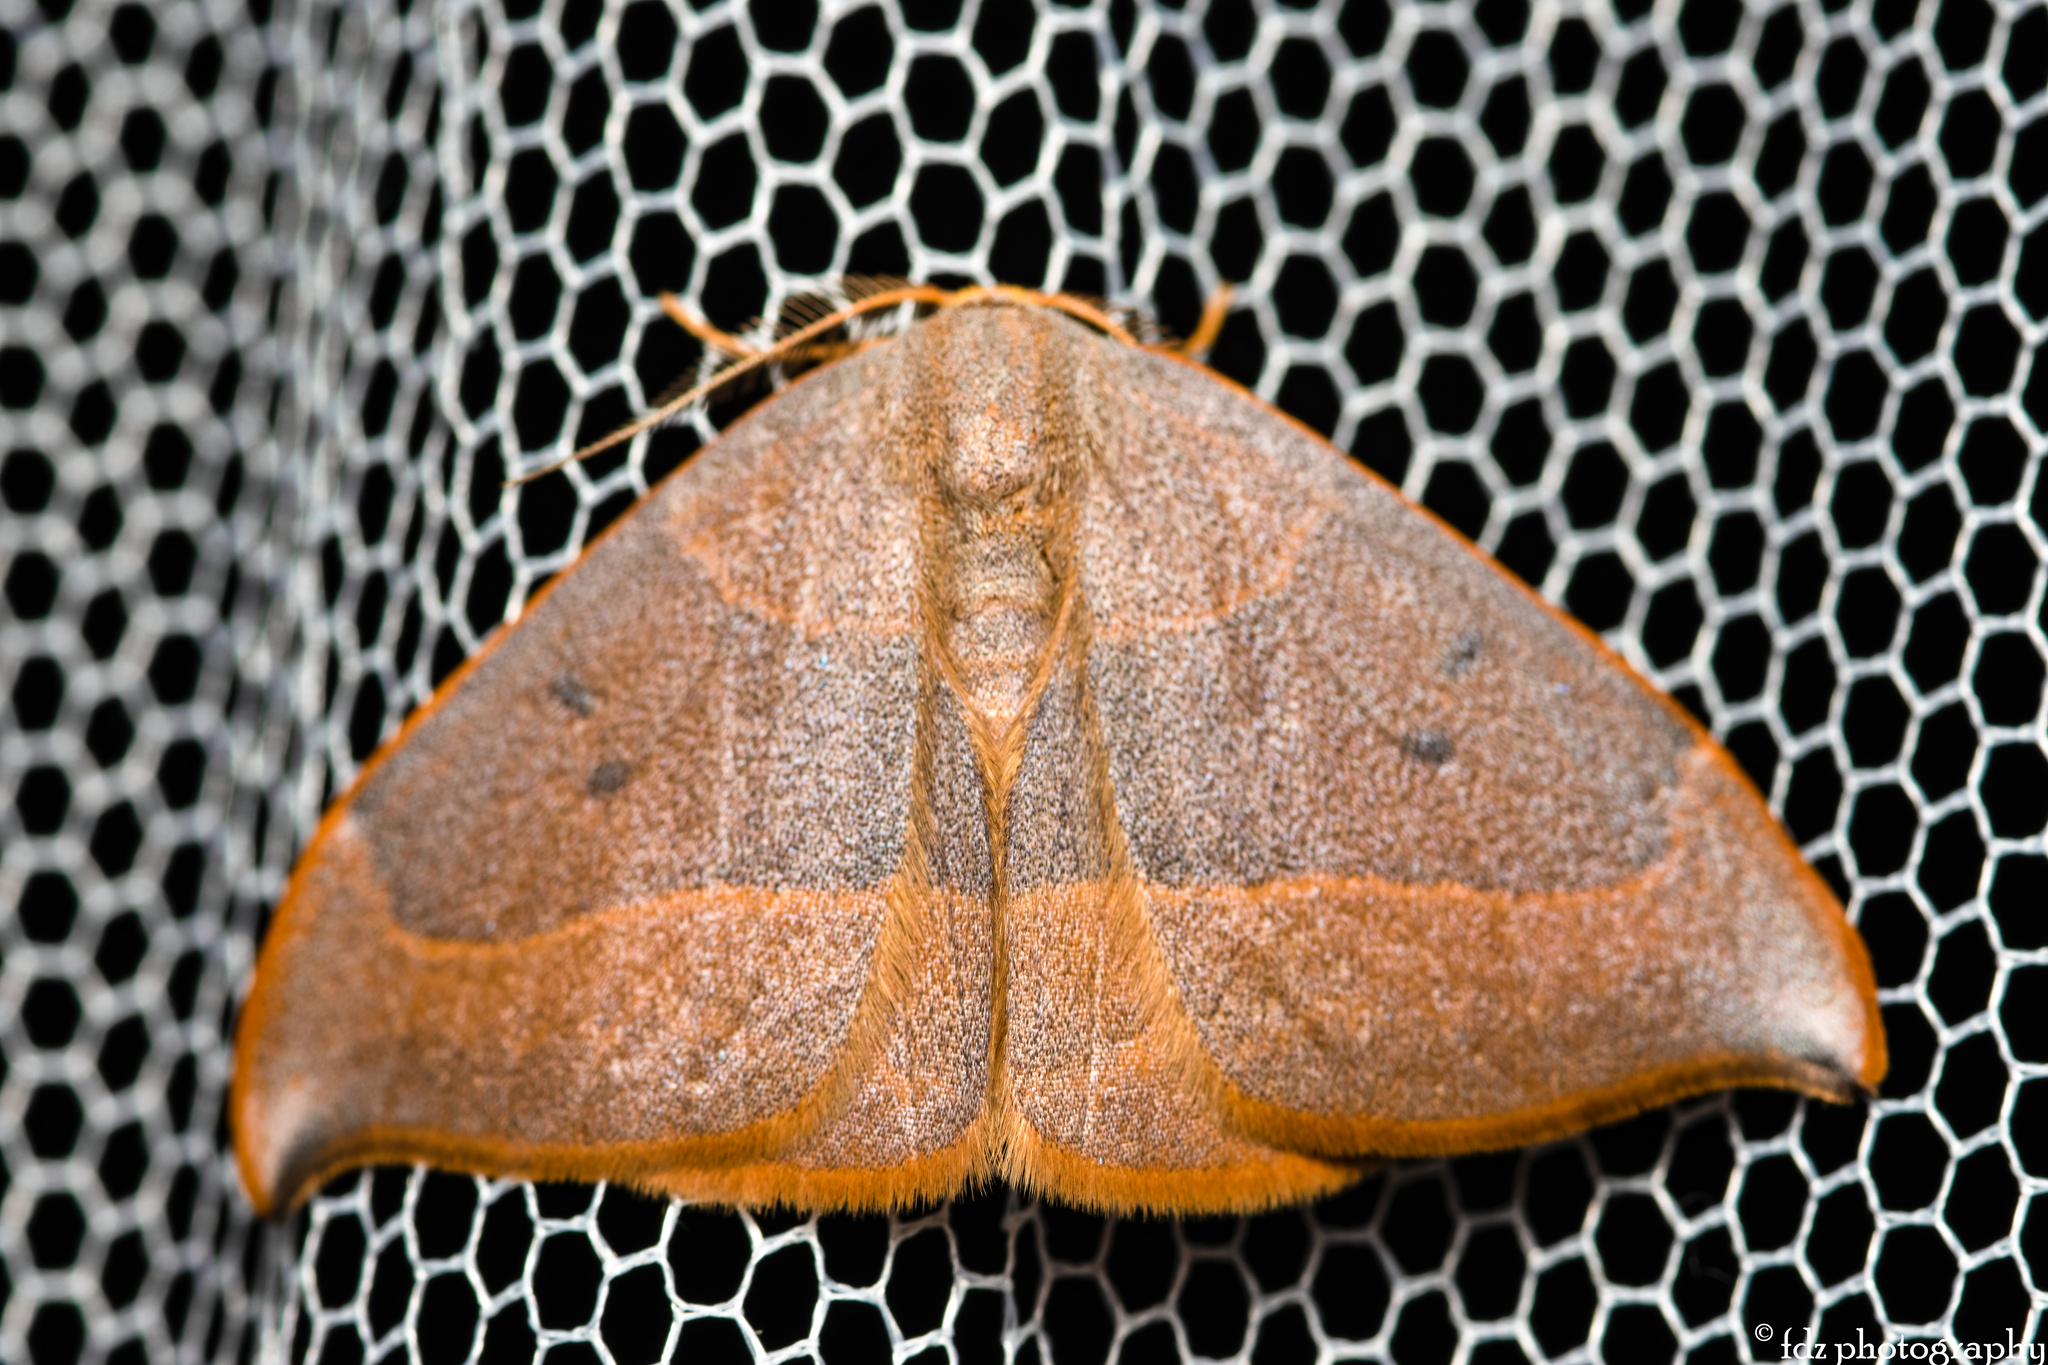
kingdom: Animalia
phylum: Arthropoda
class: Insecta
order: Lepidoptera
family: Drepanidae
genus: Watsonalla
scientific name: Watsonalla uncinula
